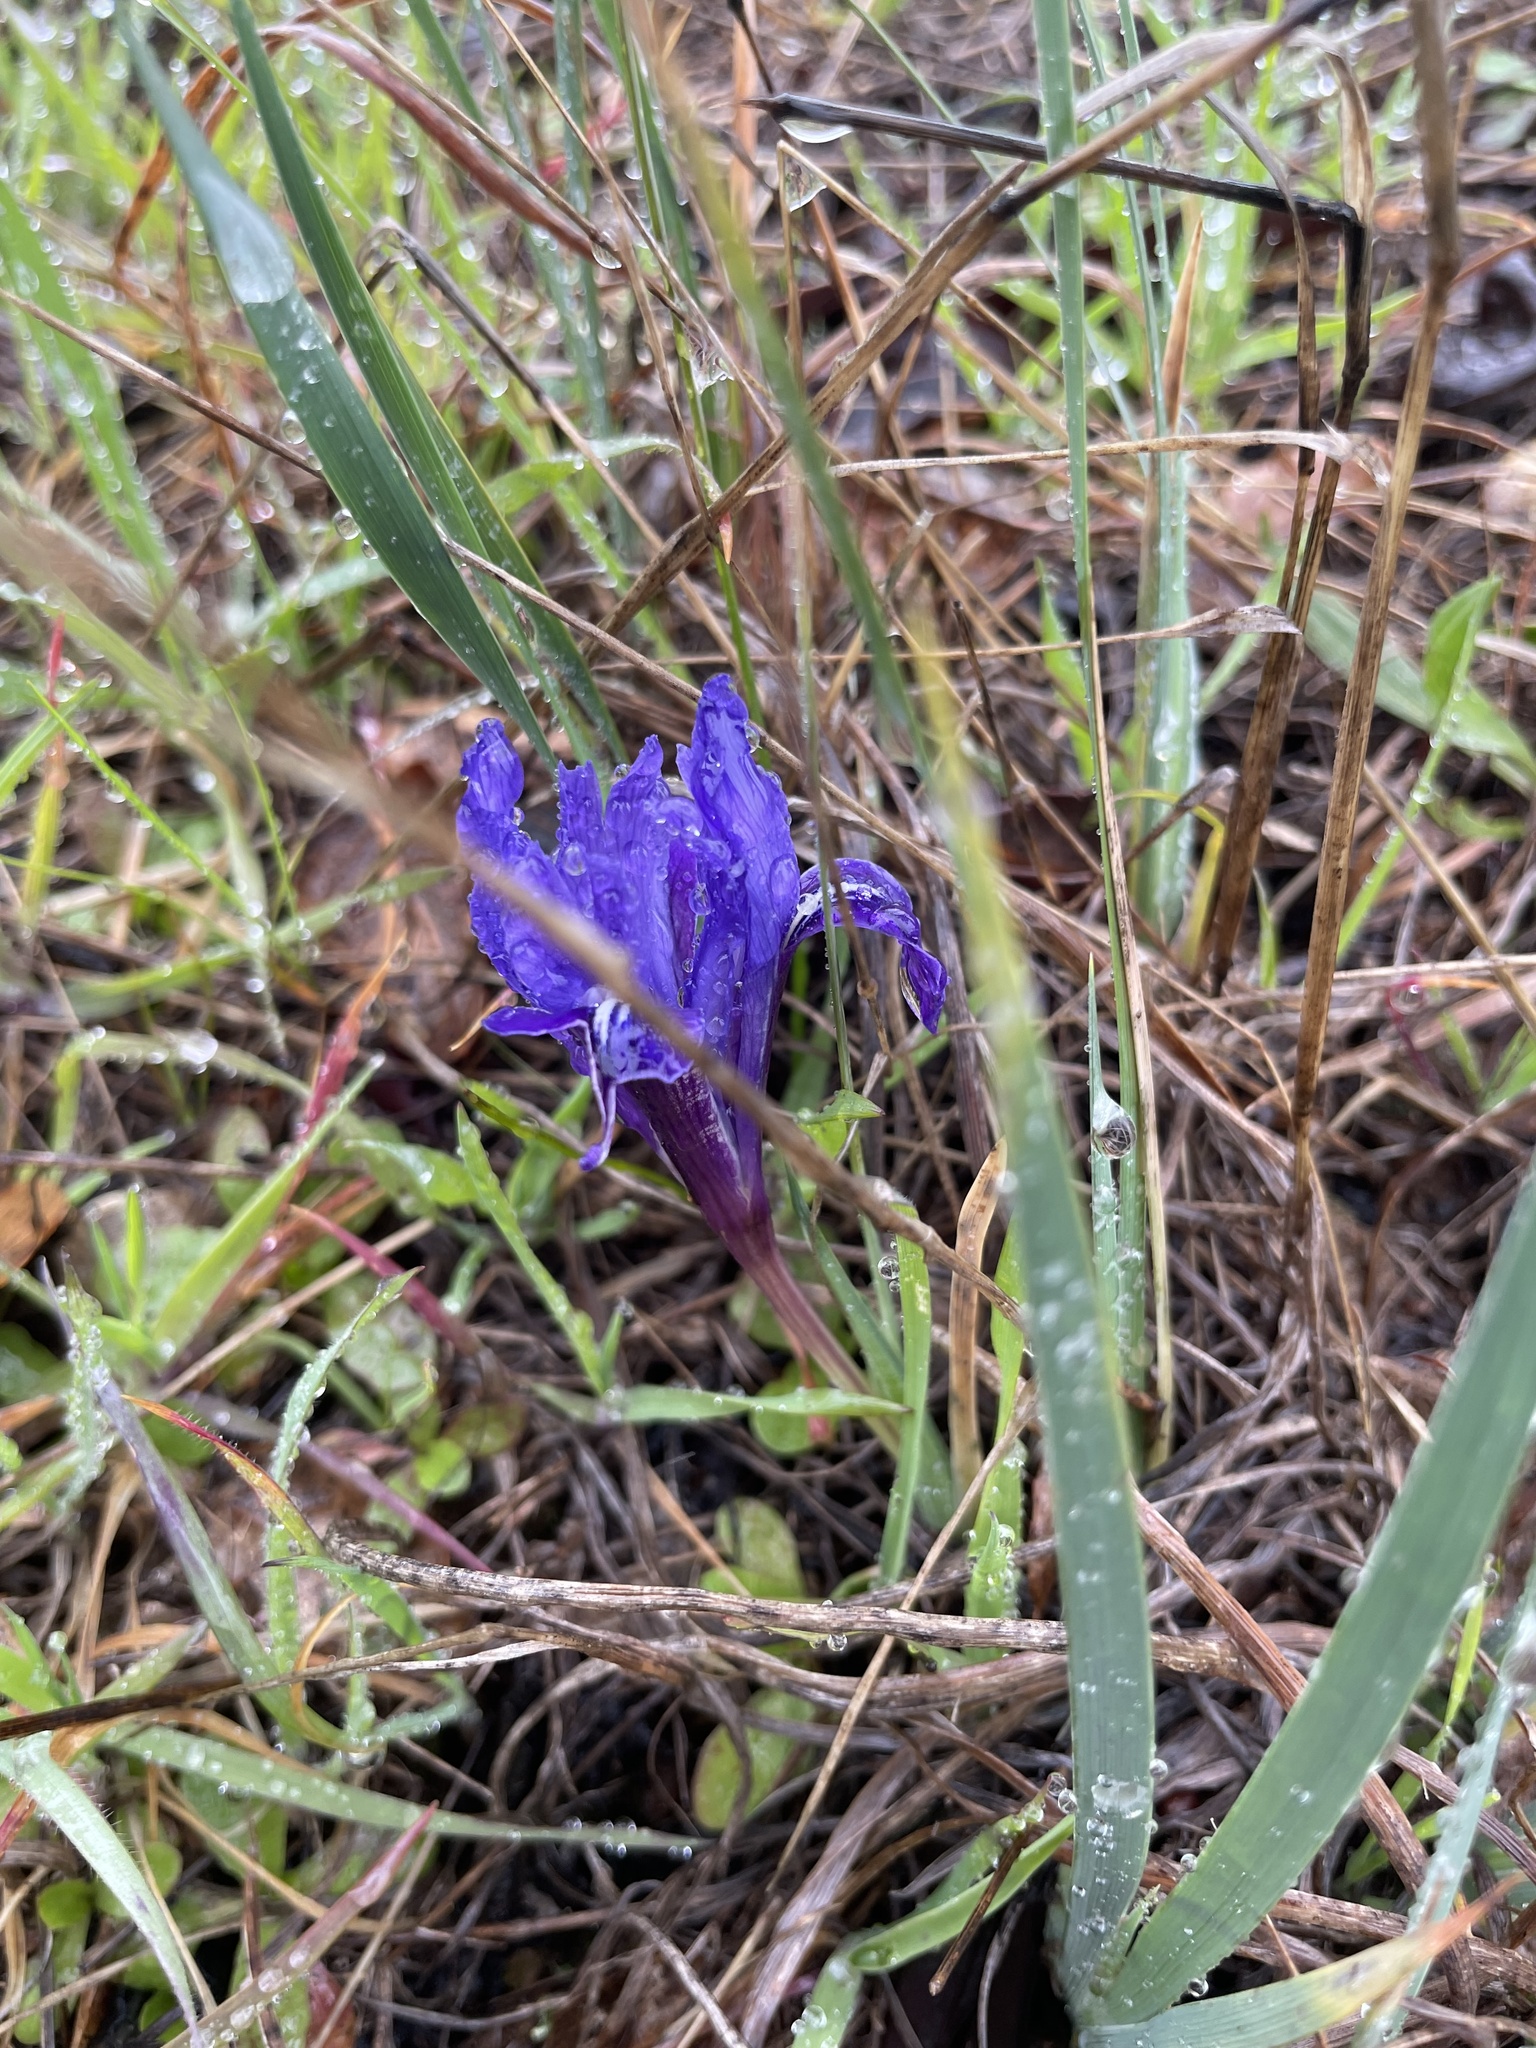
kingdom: Plantae
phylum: Tracheophyta
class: Liliopsida
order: Asparagales
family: Iridaceae
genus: Iris
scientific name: Iris macrosiphon
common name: Ground iris
